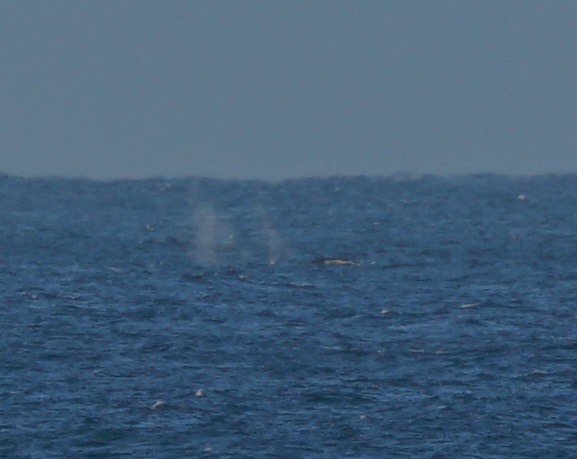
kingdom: Animalia
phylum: Chordata
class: Mammalia
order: Cetacea
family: Balaenopteridae
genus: Megaptera
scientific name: Megaptera novaeangliae
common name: Humpback whale
